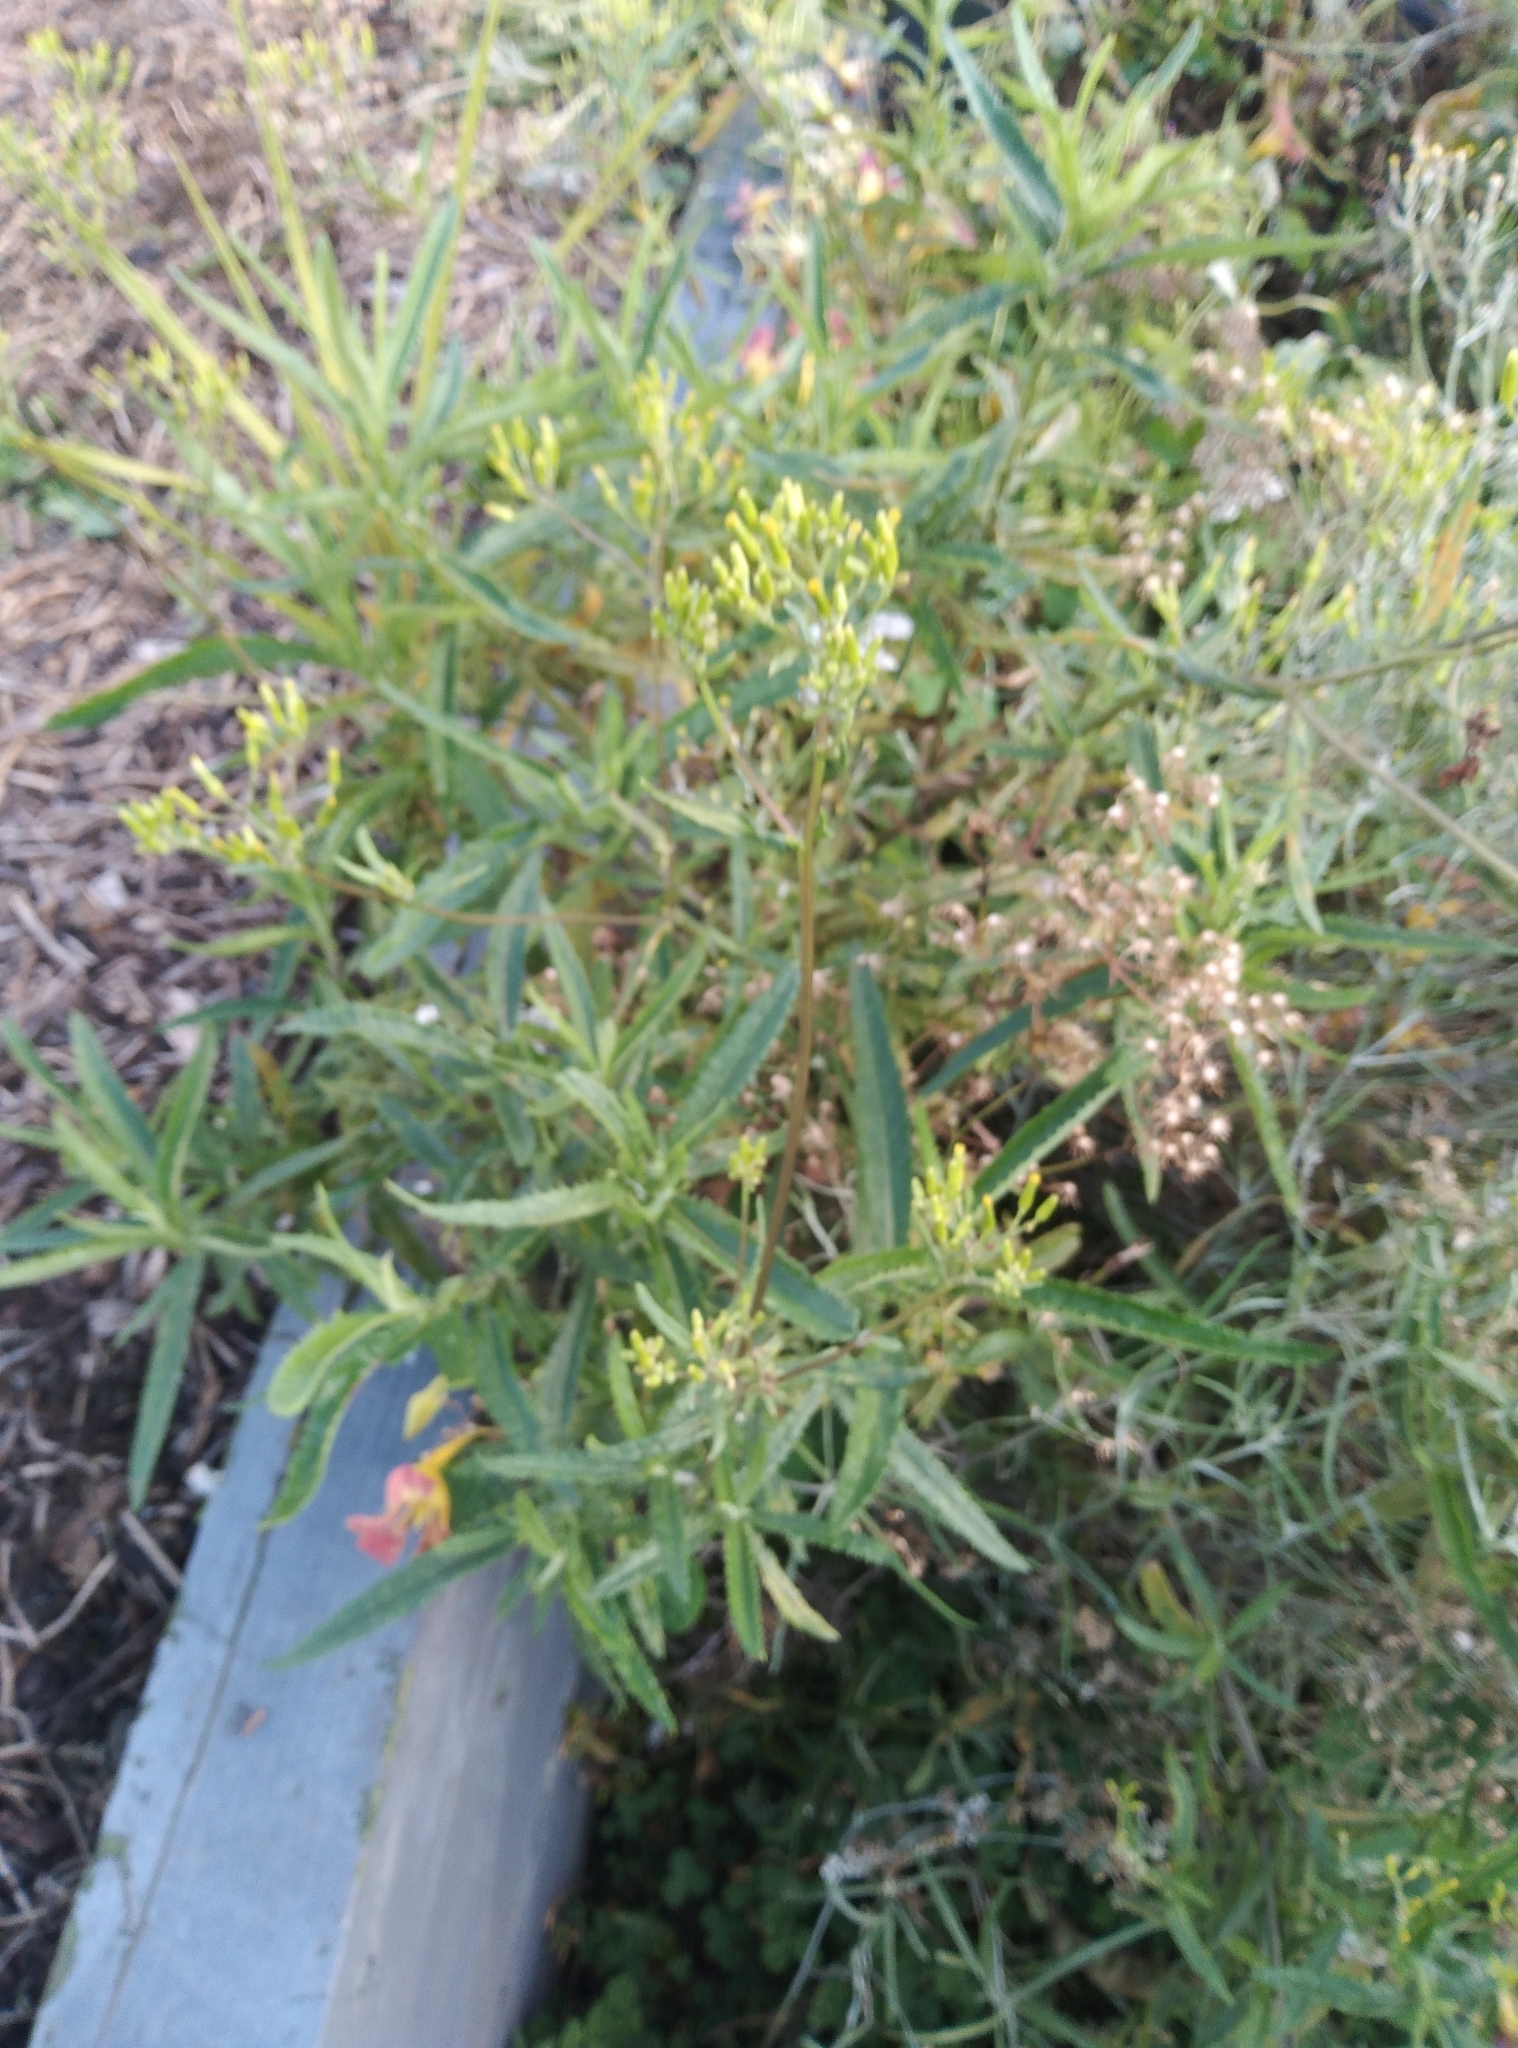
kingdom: Plantae
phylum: Tracheophyta
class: Magnoliopsida
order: Asterales
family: Asteraceae
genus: Senecio
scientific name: Senecio minimus
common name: Toothed fireweed
